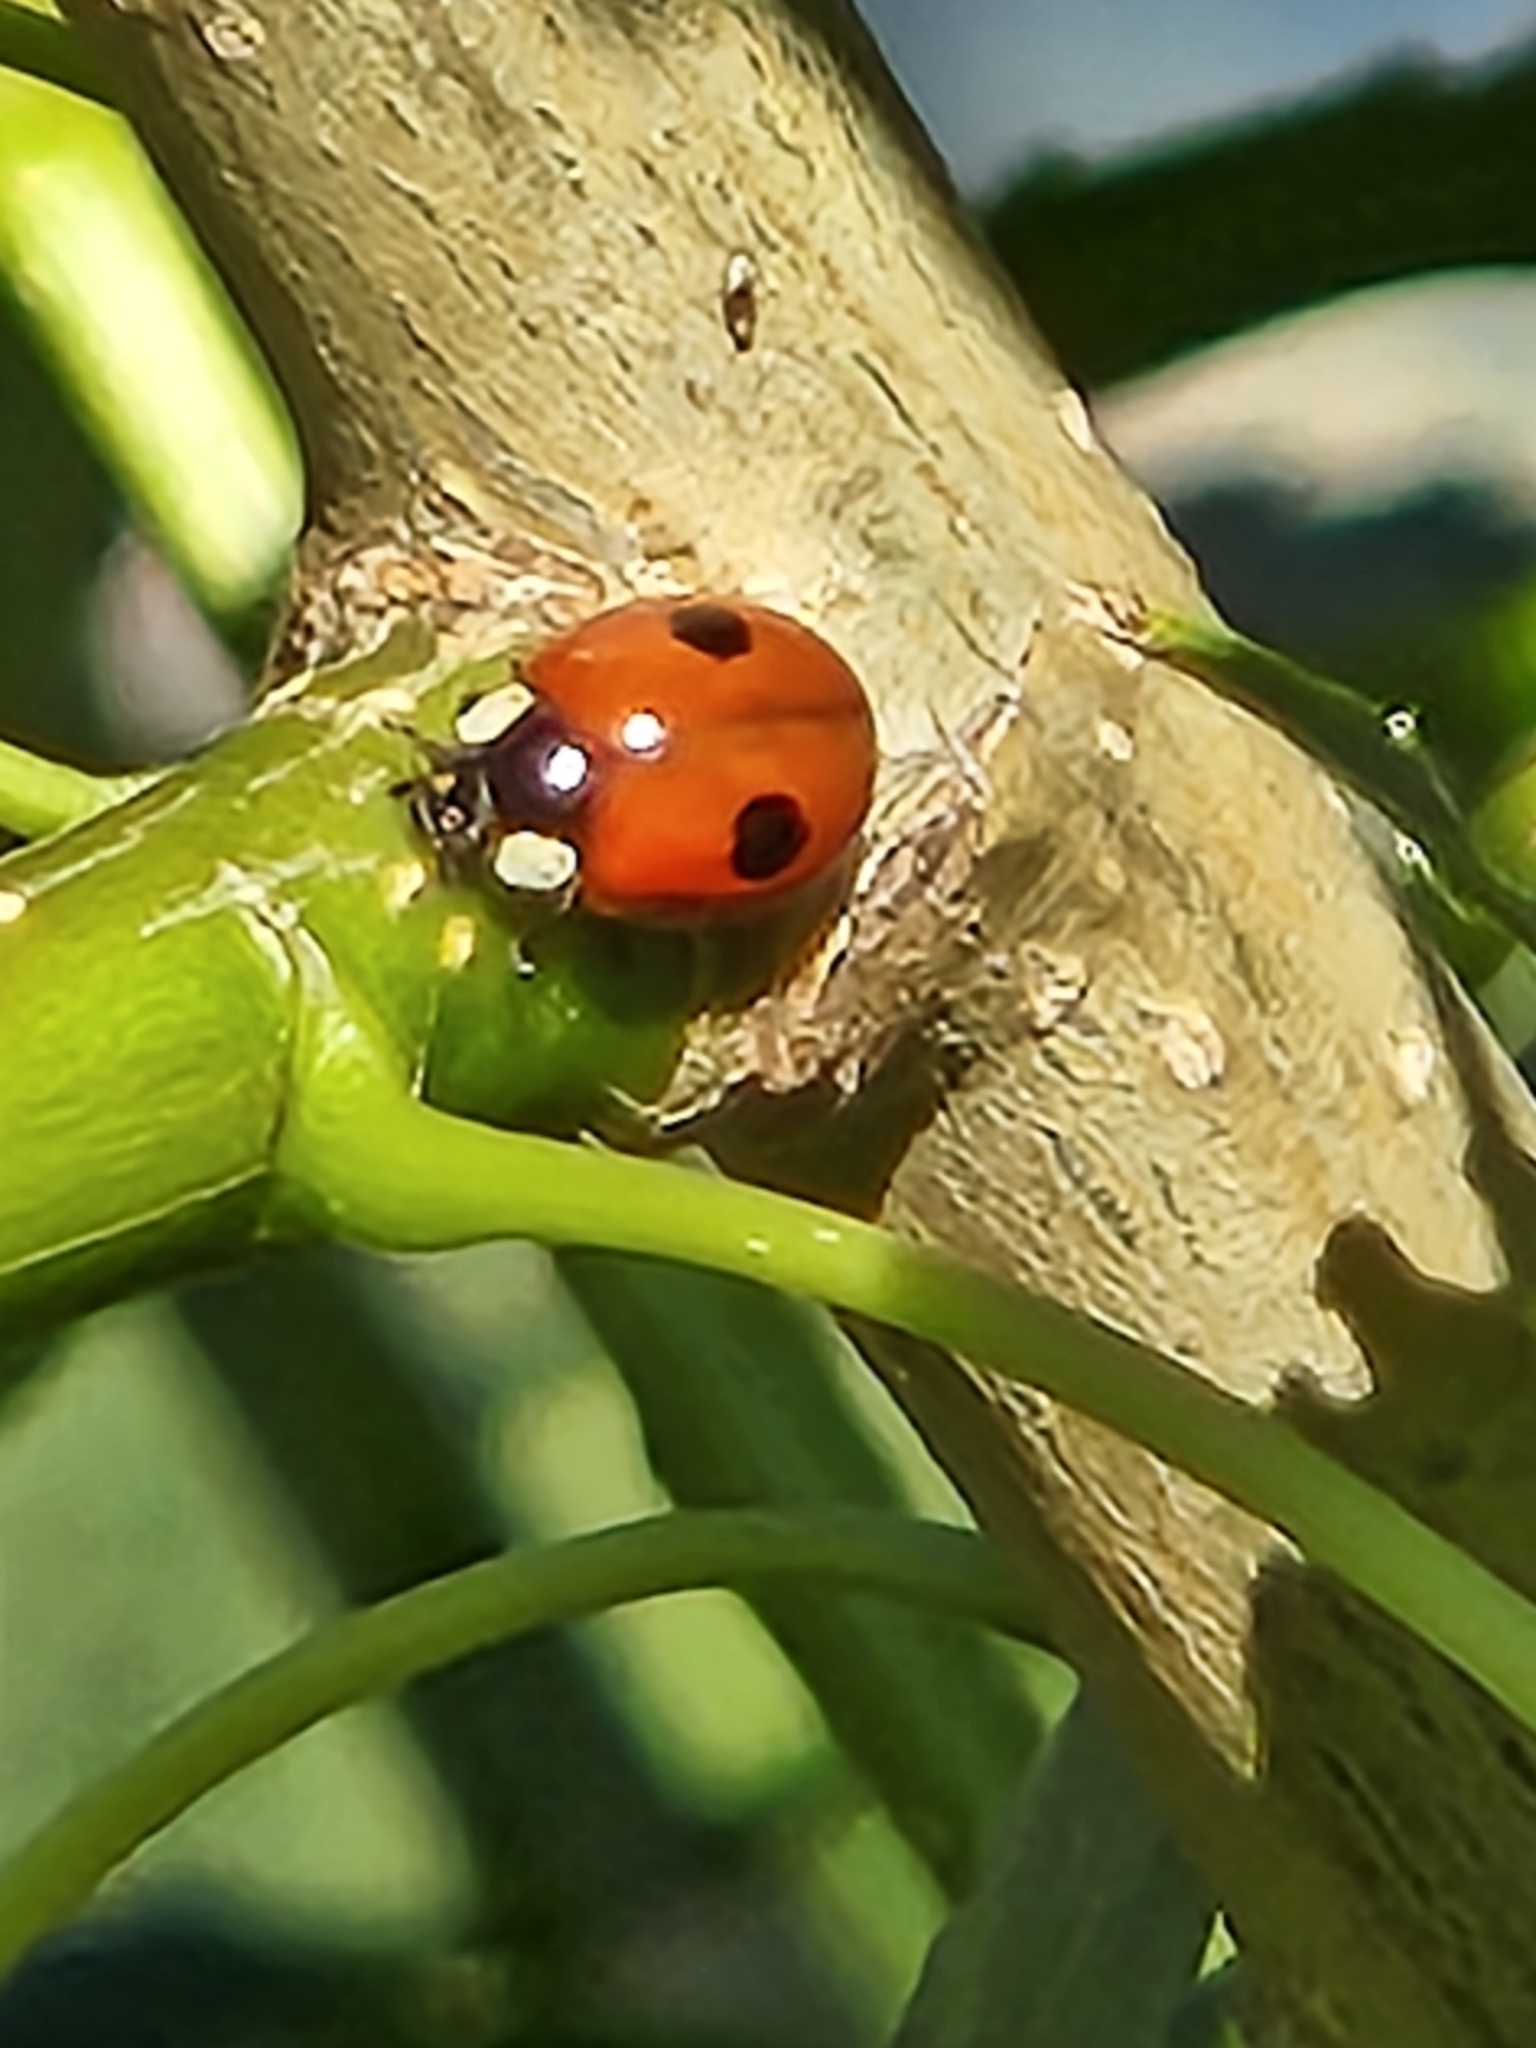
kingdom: Animalia
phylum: Arthropoda
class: Insecta
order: Coleoptera
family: Coccinellidae
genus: Adalia
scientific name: Adalia bipunctata
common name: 2-spot ladybird
